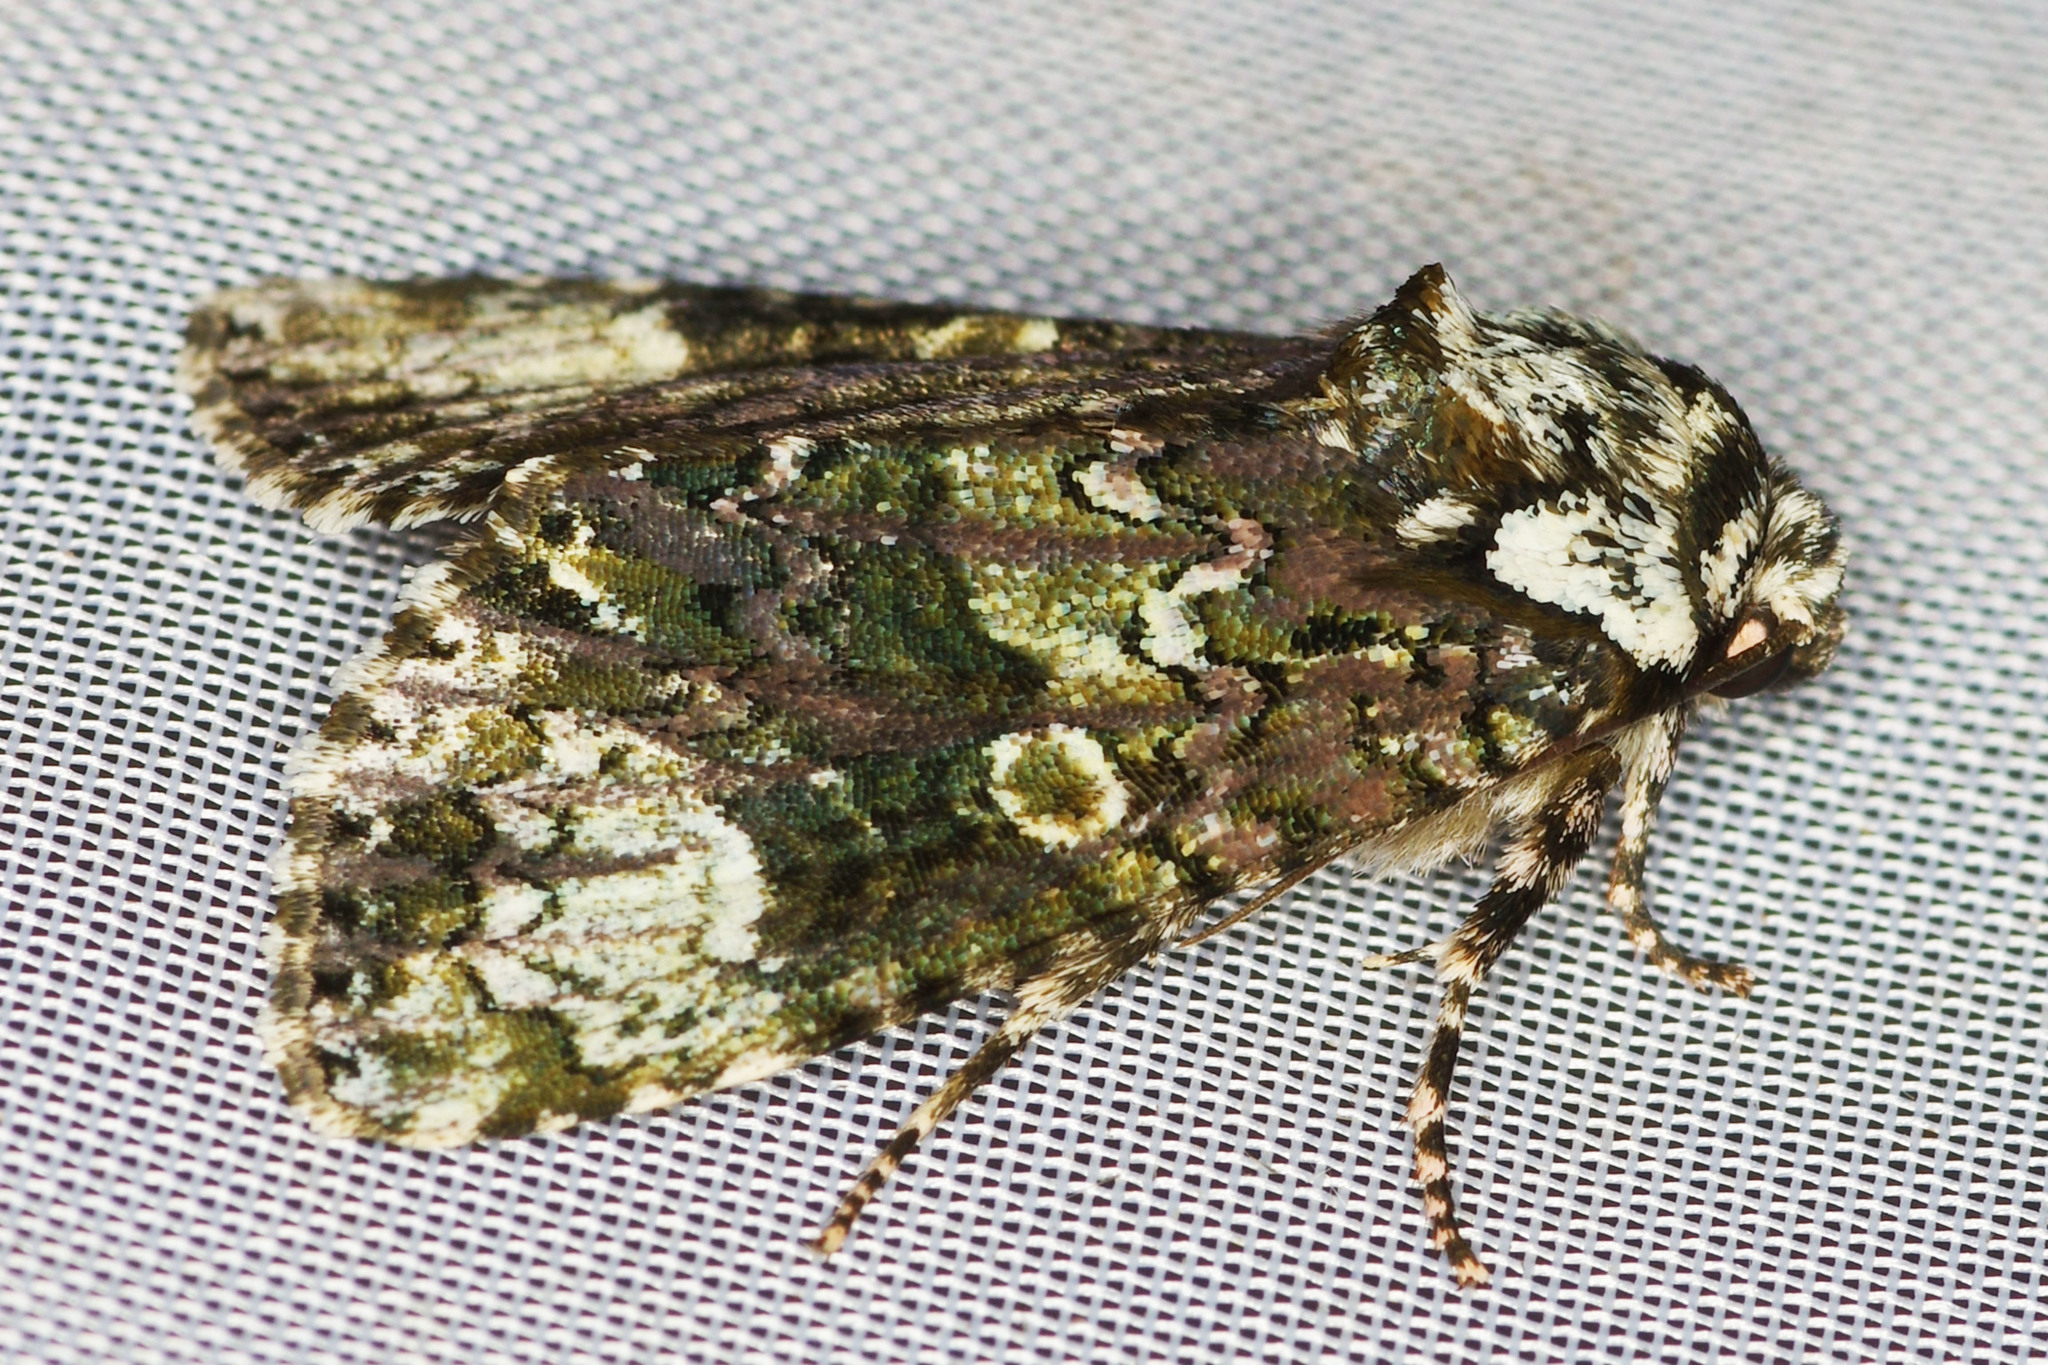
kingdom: Animalia
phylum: Arthropoda
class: Insecta
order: Lepidoptera
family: Noctuidae
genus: Craniophora
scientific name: Craniophora ligustri
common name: Coronet
